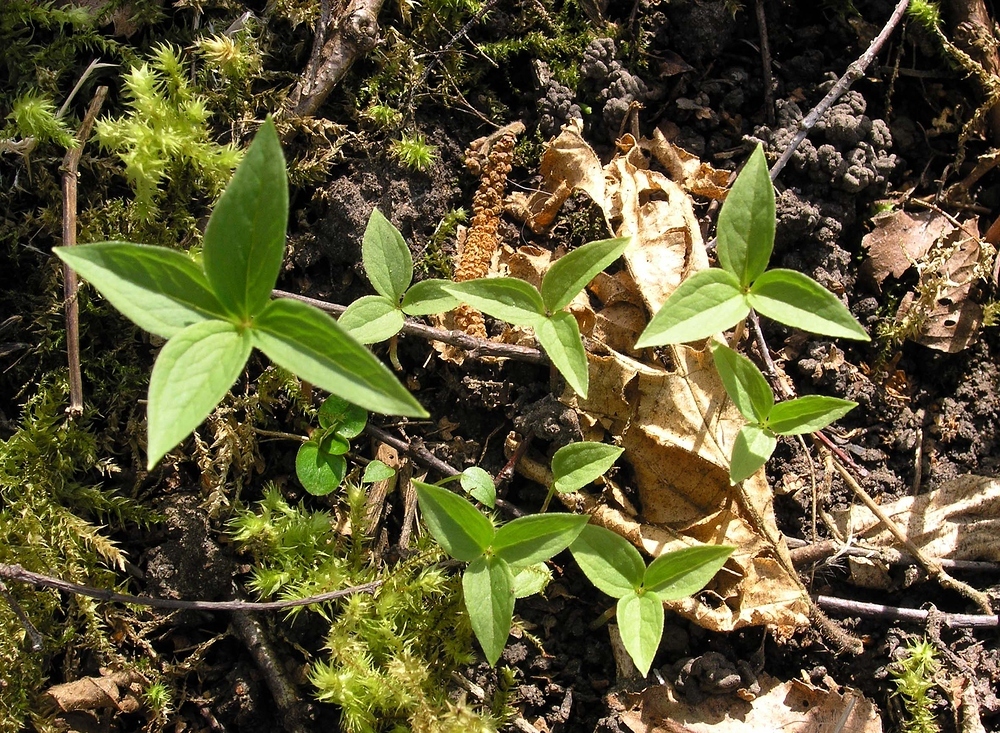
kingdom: Plantae
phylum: Tracheophyta
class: Liliopsida
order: Liliales
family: Melanthiaceae
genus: Paris
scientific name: Paris quadrifolia
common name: Herb-paris
